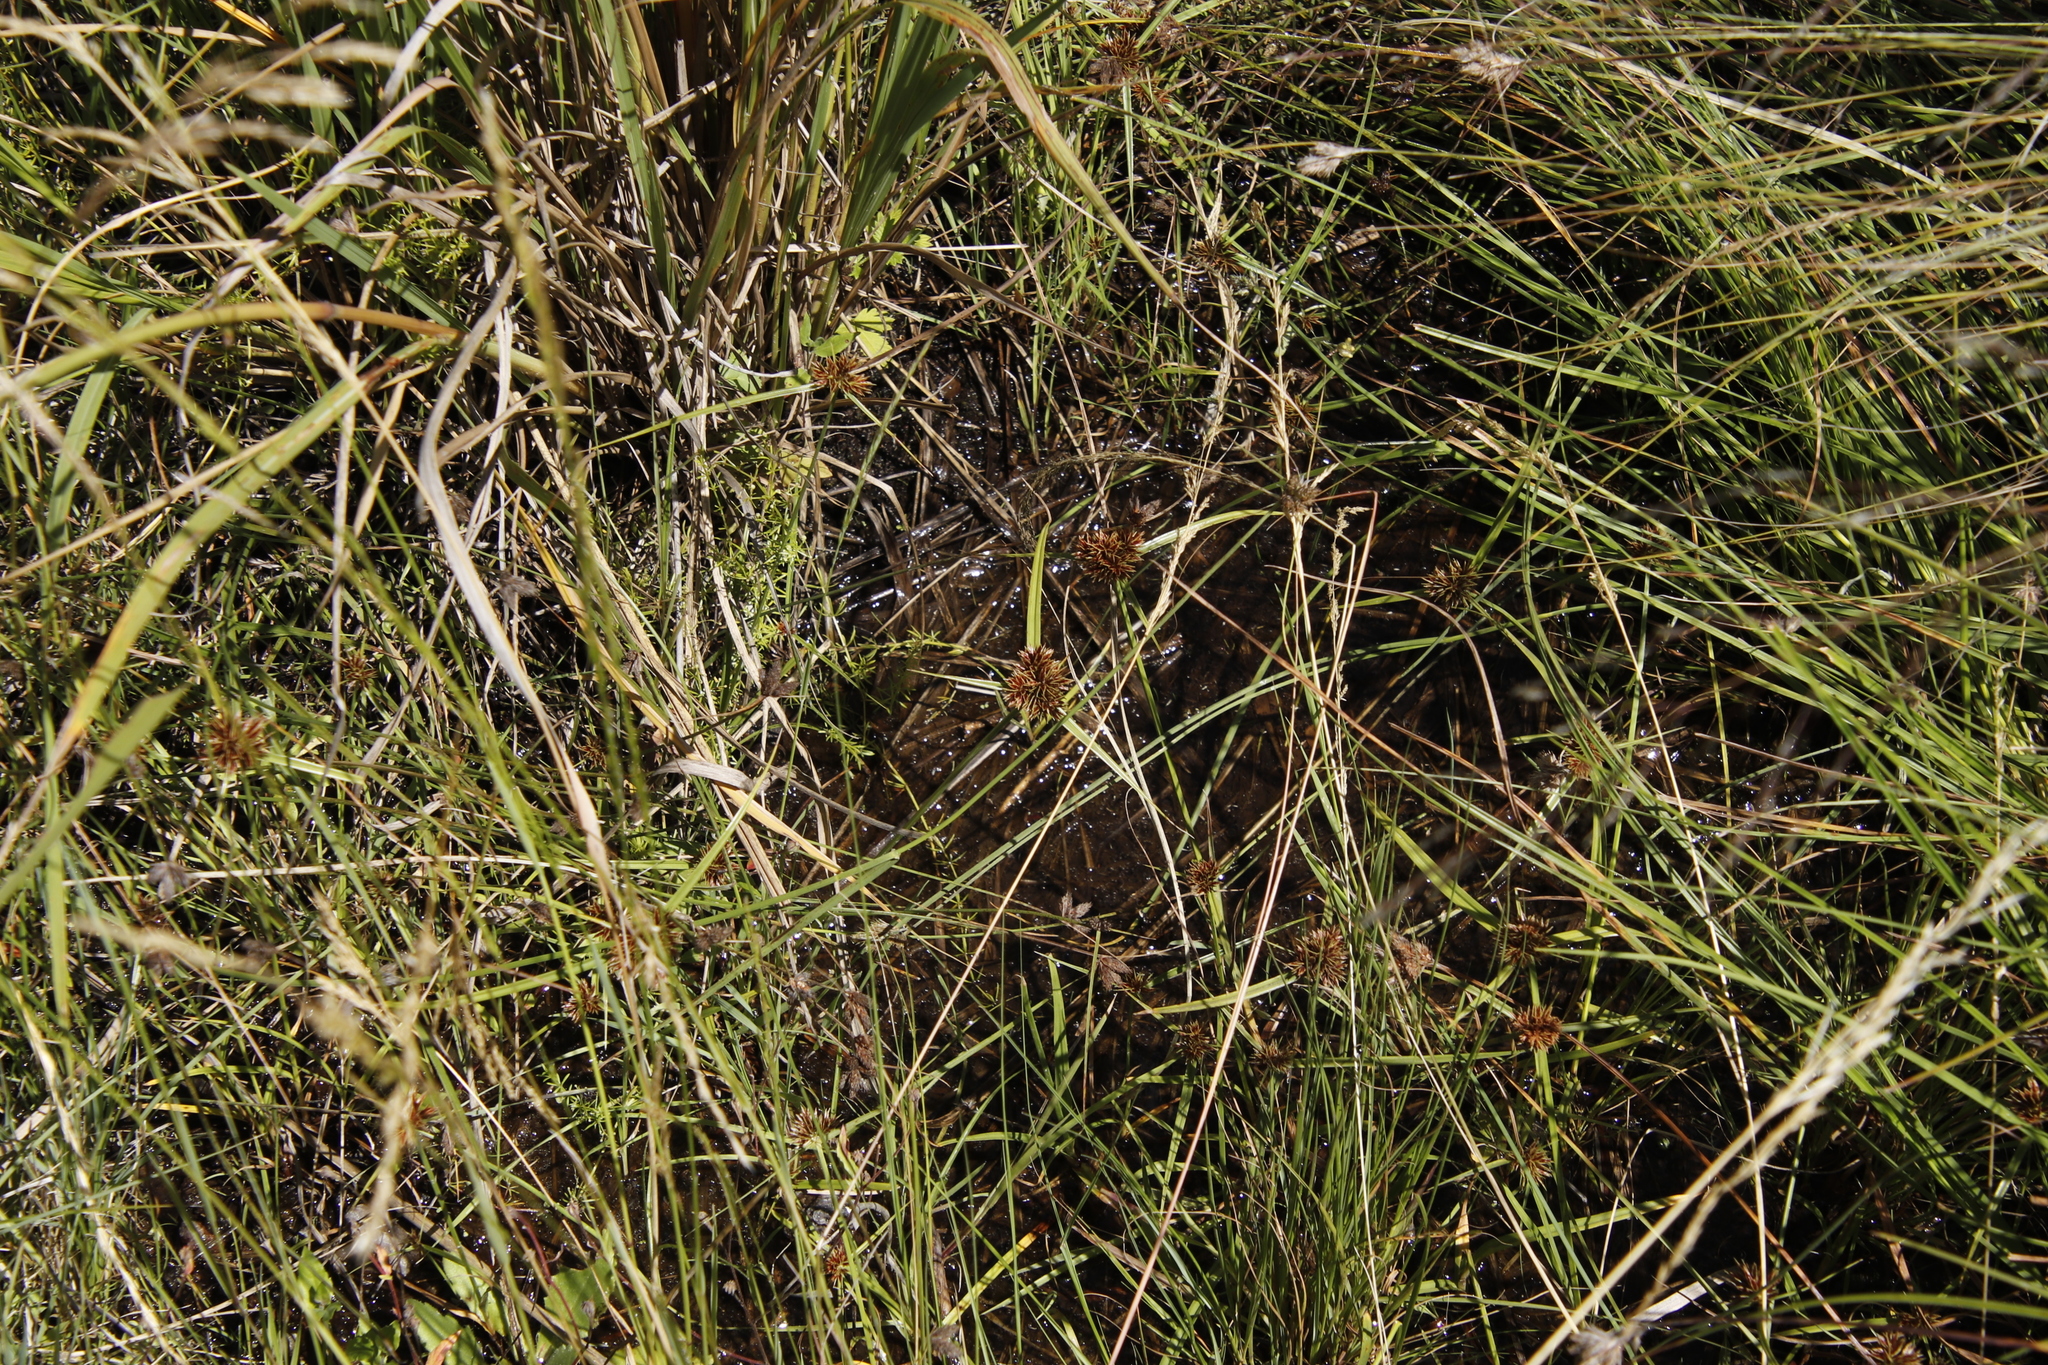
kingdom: Plantae
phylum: Tracheophyta
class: Liliopsida
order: Poales
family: Cyperaceae
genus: Cyperus
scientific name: Cyperus congestus
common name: Dense flat sedge
